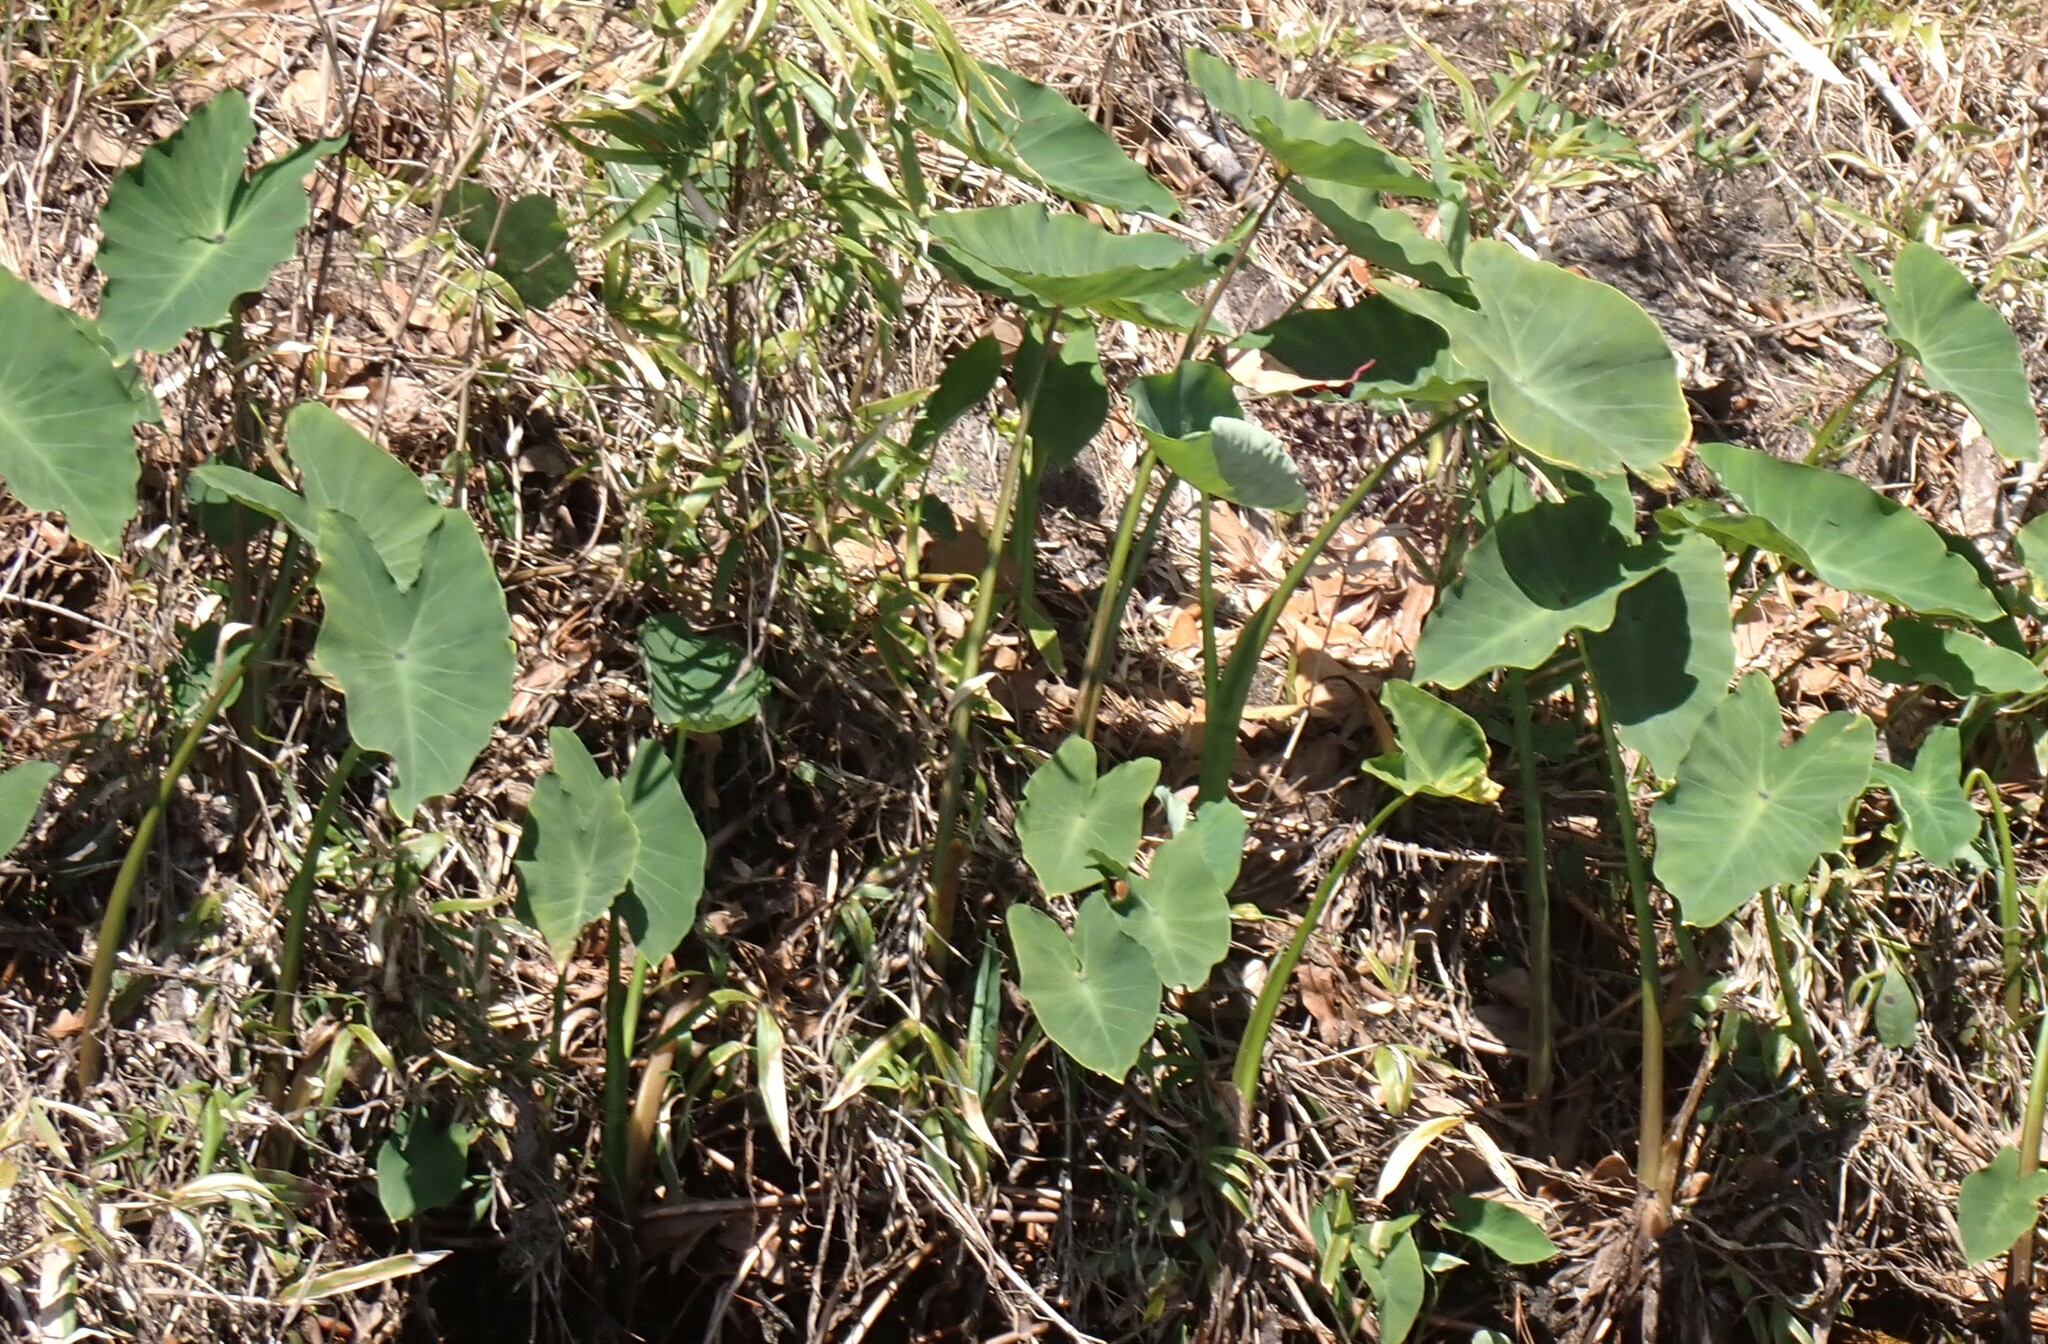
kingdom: Plantae
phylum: Tracheophyta
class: Liliopsida
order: Alismatales
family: Araceae
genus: Colocasia
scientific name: Colocasia esculenta
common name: Taro
